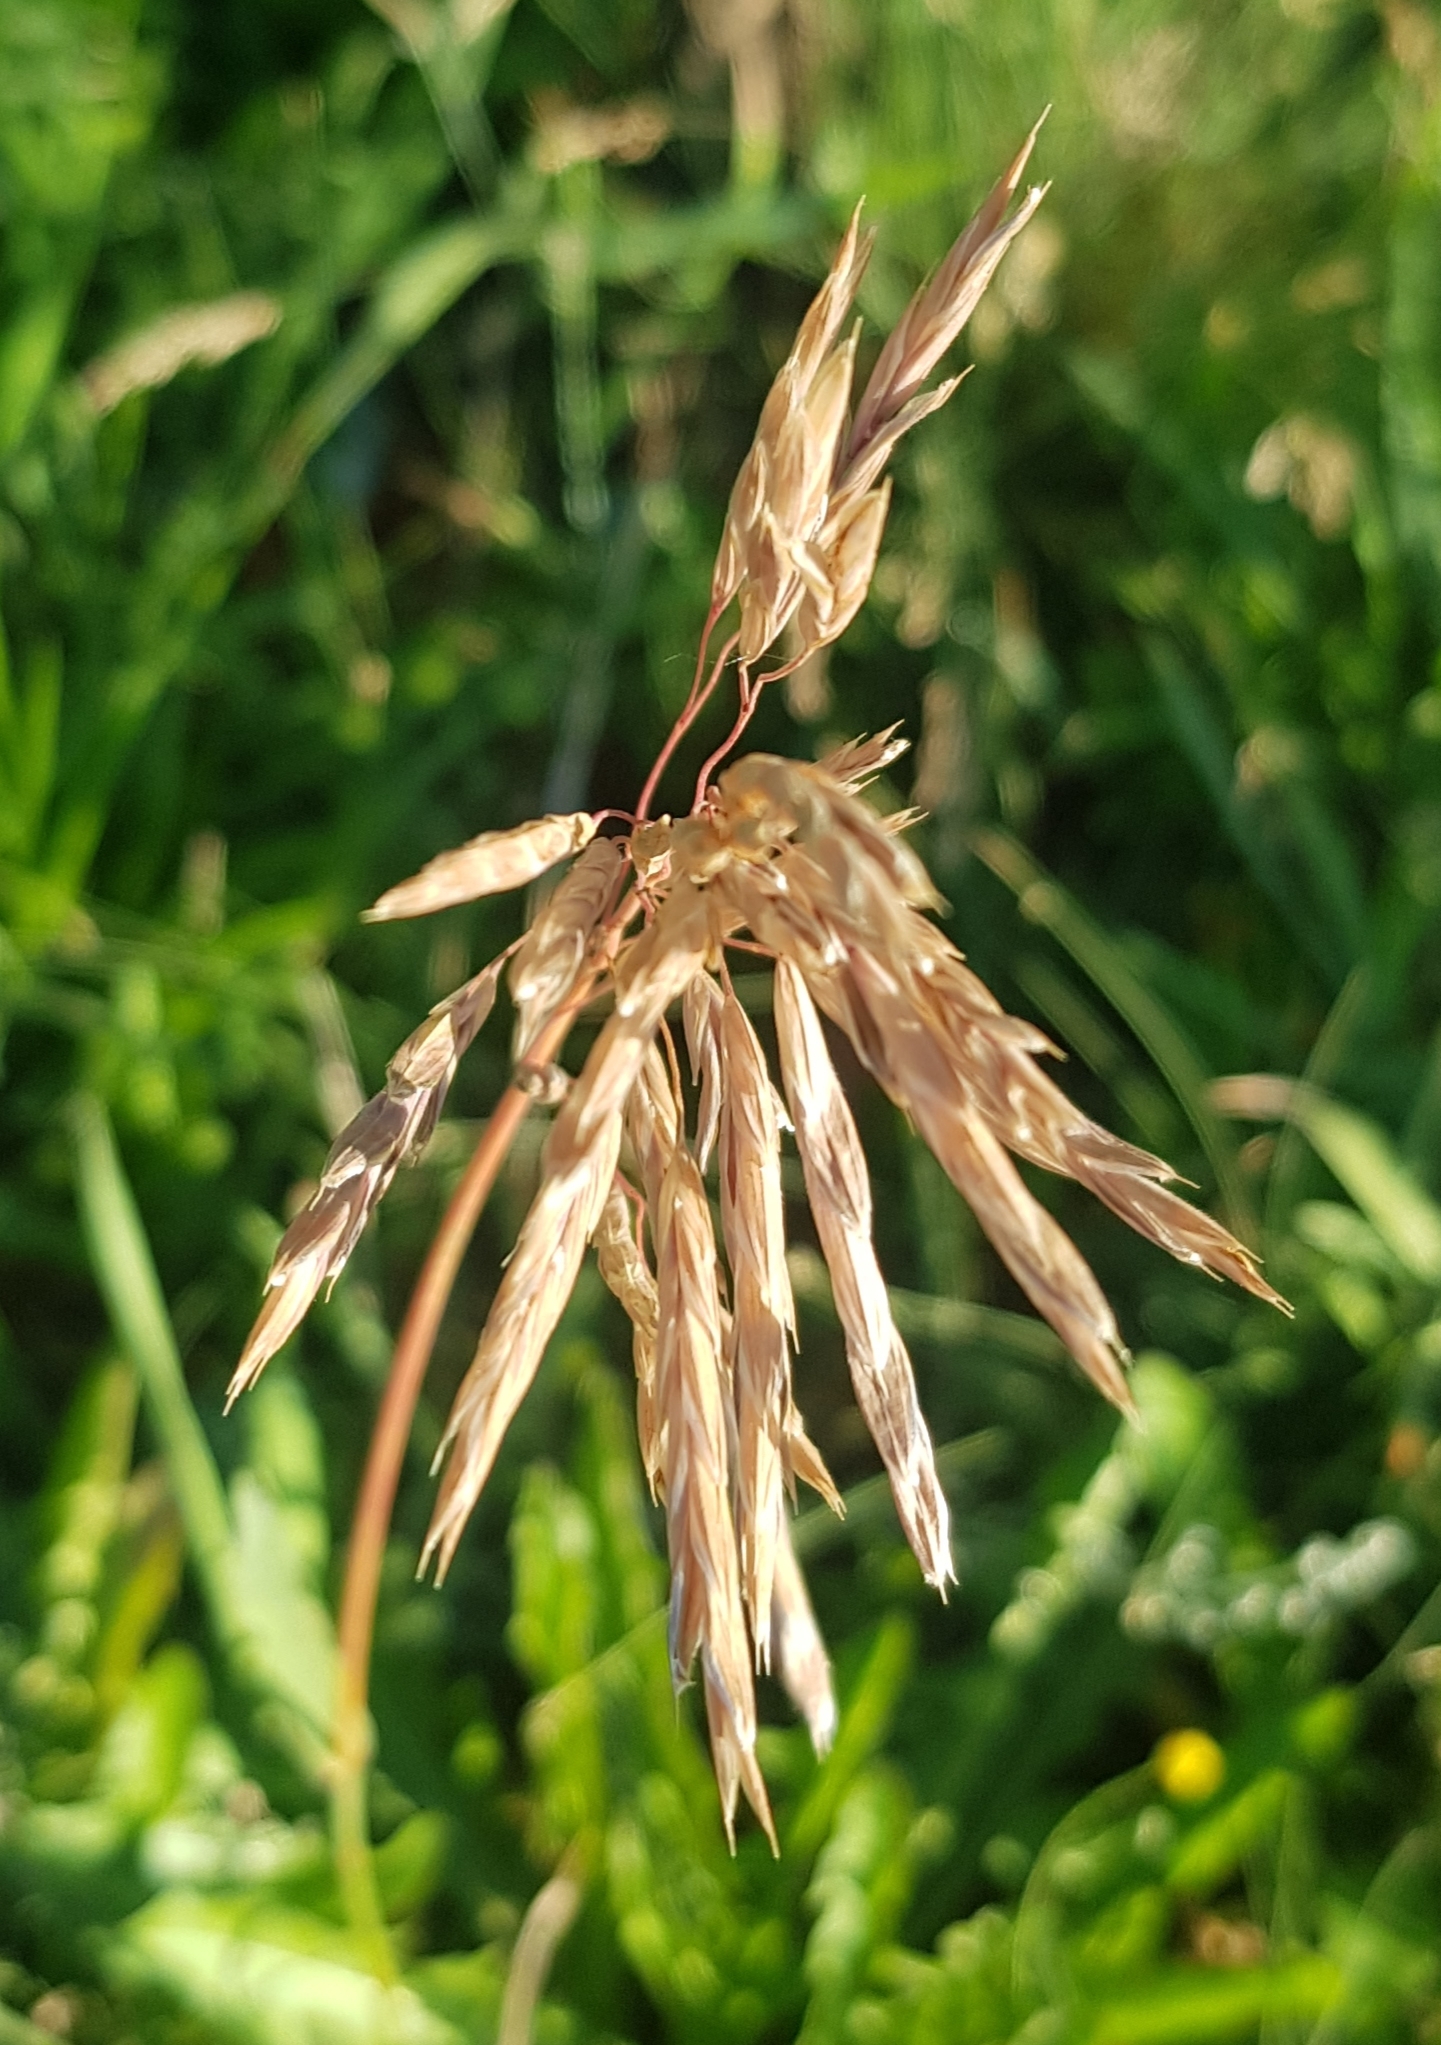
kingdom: Plantae
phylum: Tracheophyta
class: Liliopsida
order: Poales
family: Poaceae
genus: Bromus
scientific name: Bromus inermis
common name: Smooth brome
